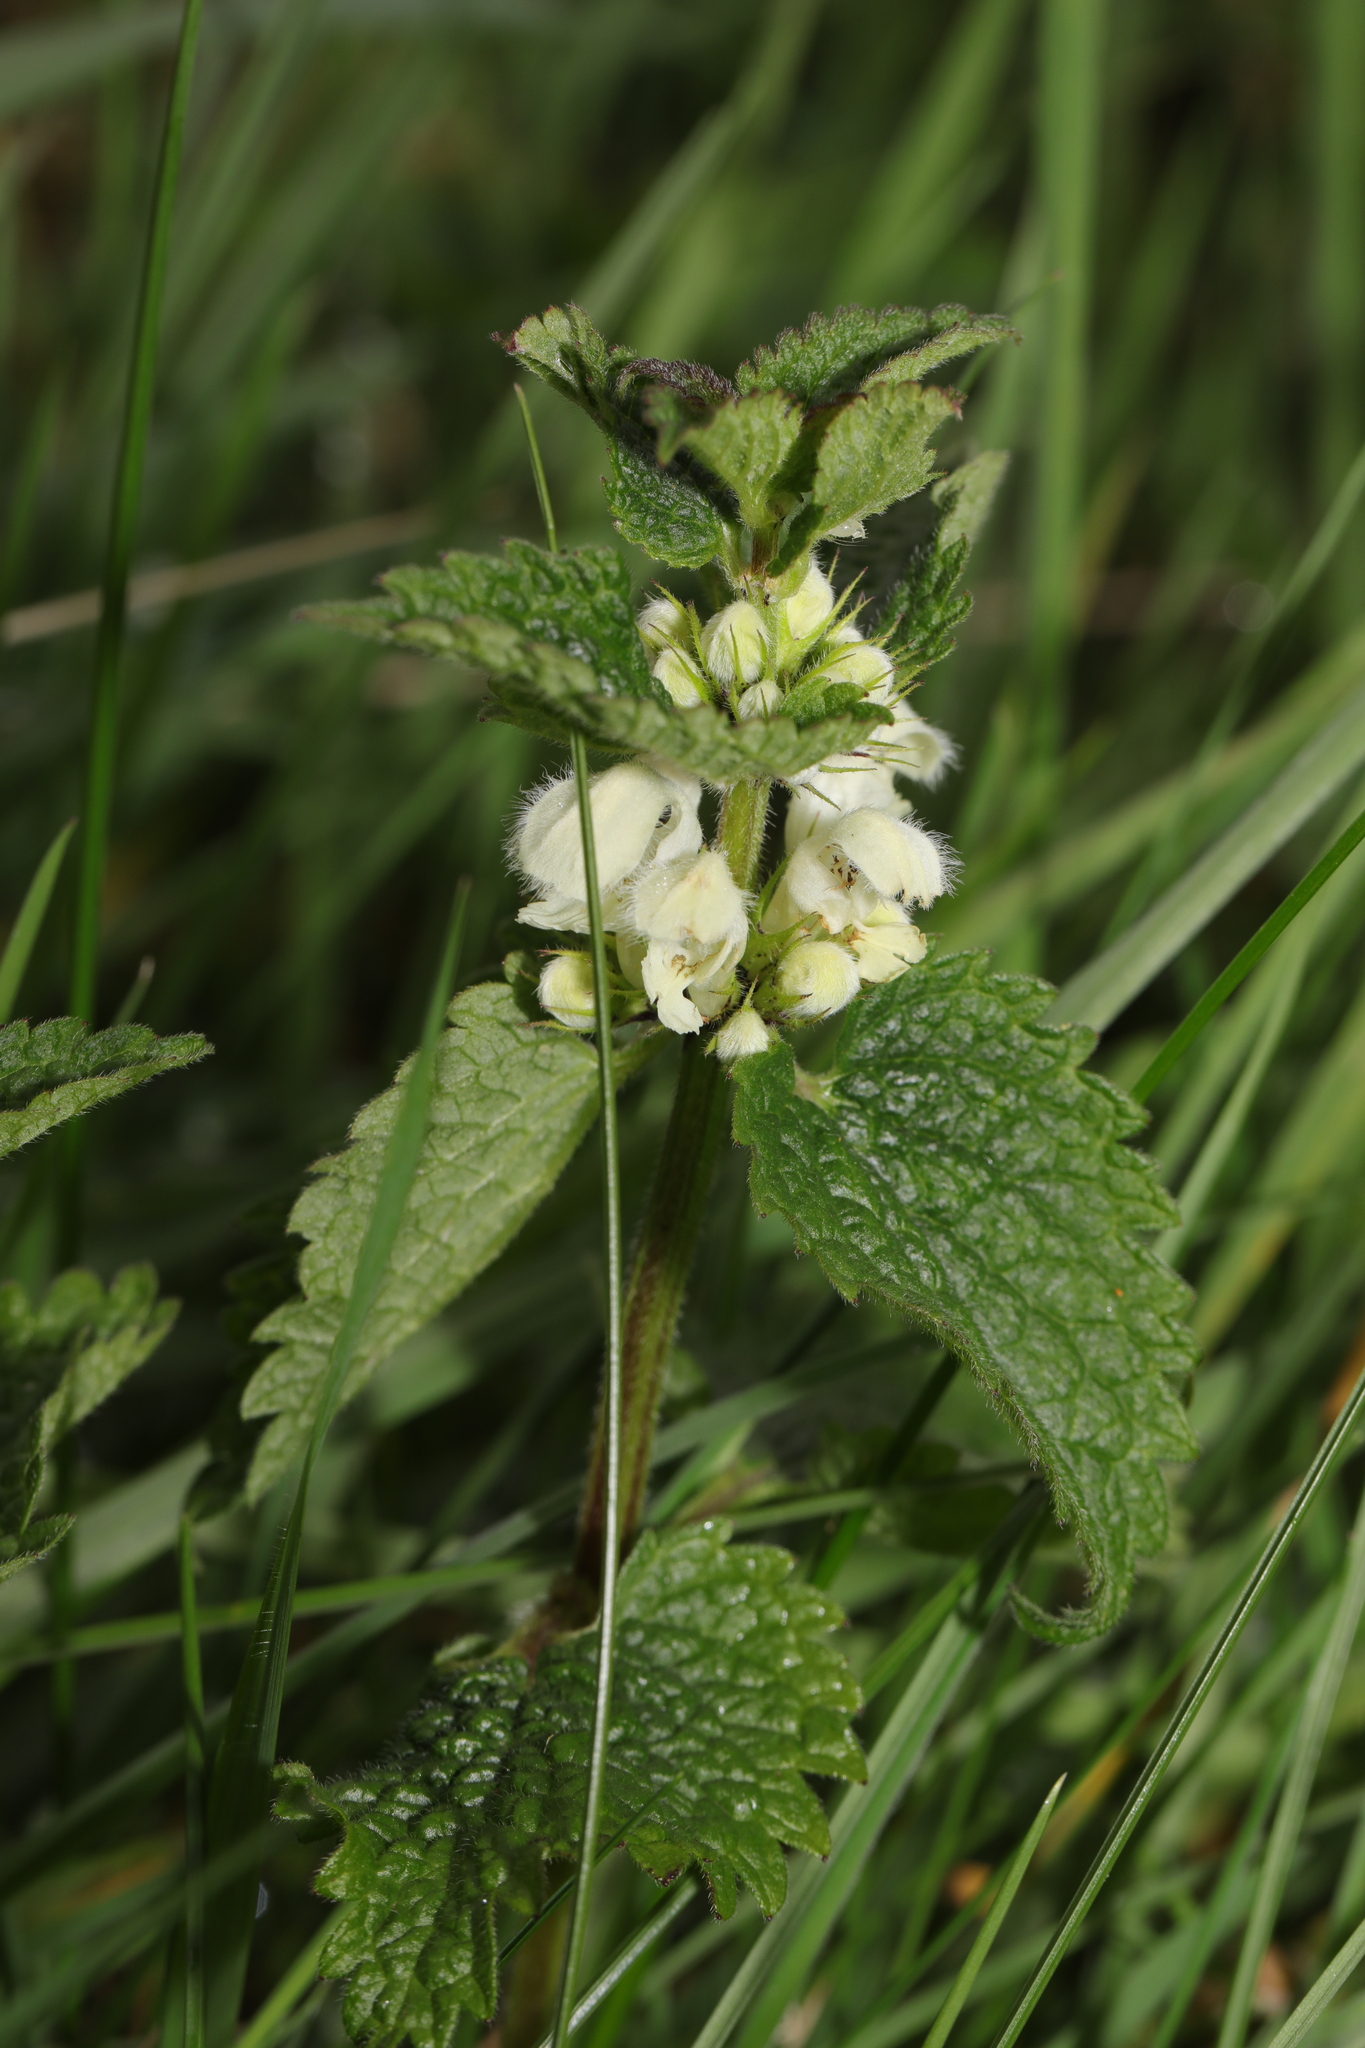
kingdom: Plantae
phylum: Tracheophyta
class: Magnoliopsida
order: Lamiales
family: Lamiaceae
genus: Lamium
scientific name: Lamium album
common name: White dead-nettle
